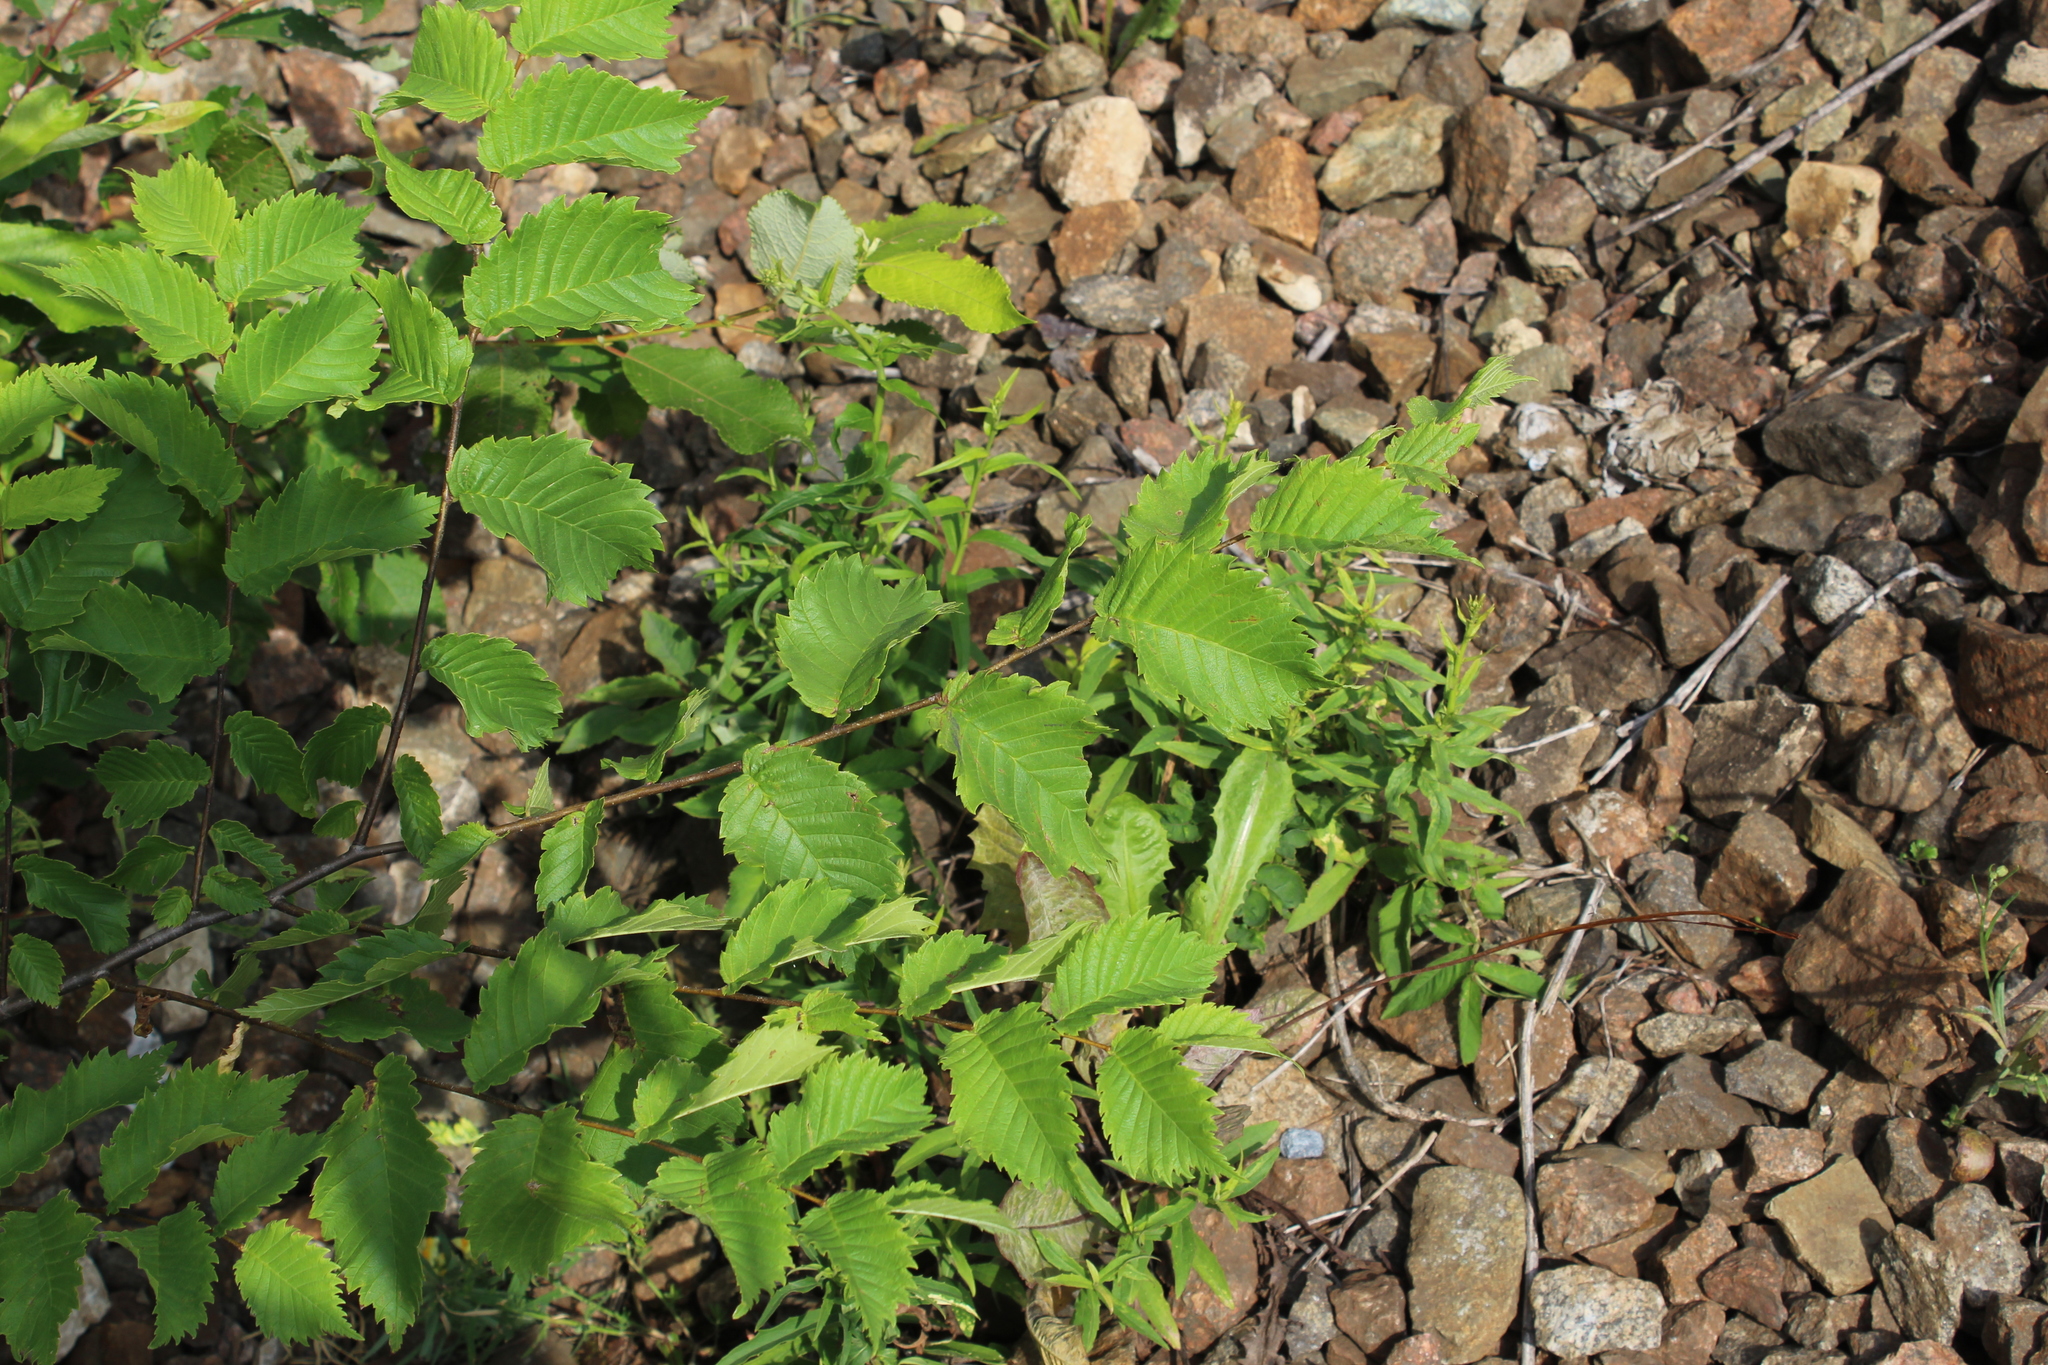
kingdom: Plantae
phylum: Tracheophyta
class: Magnoliopsida
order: Rosales
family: Ulmaceae
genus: Ulmus
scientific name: Ulmus laevis
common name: European white-elm
